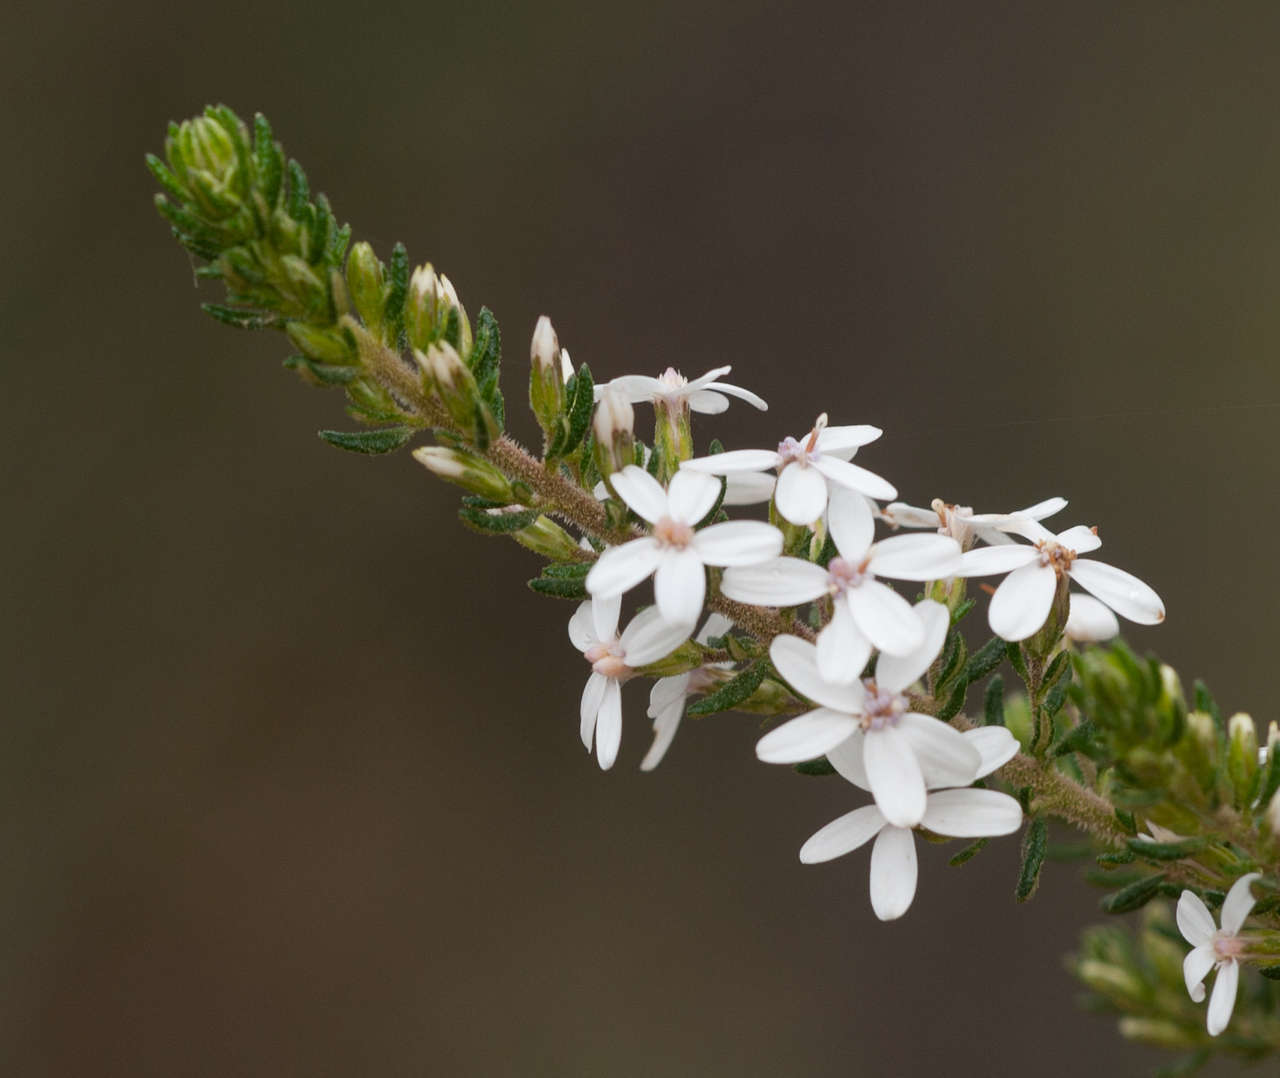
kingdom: Plantae
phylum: Tracheophyta
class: Magnoliopsida
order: Asterales
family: Asteraceae
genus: Olearia
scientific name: Olearia ramulosa
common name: Twiggy daisybush
